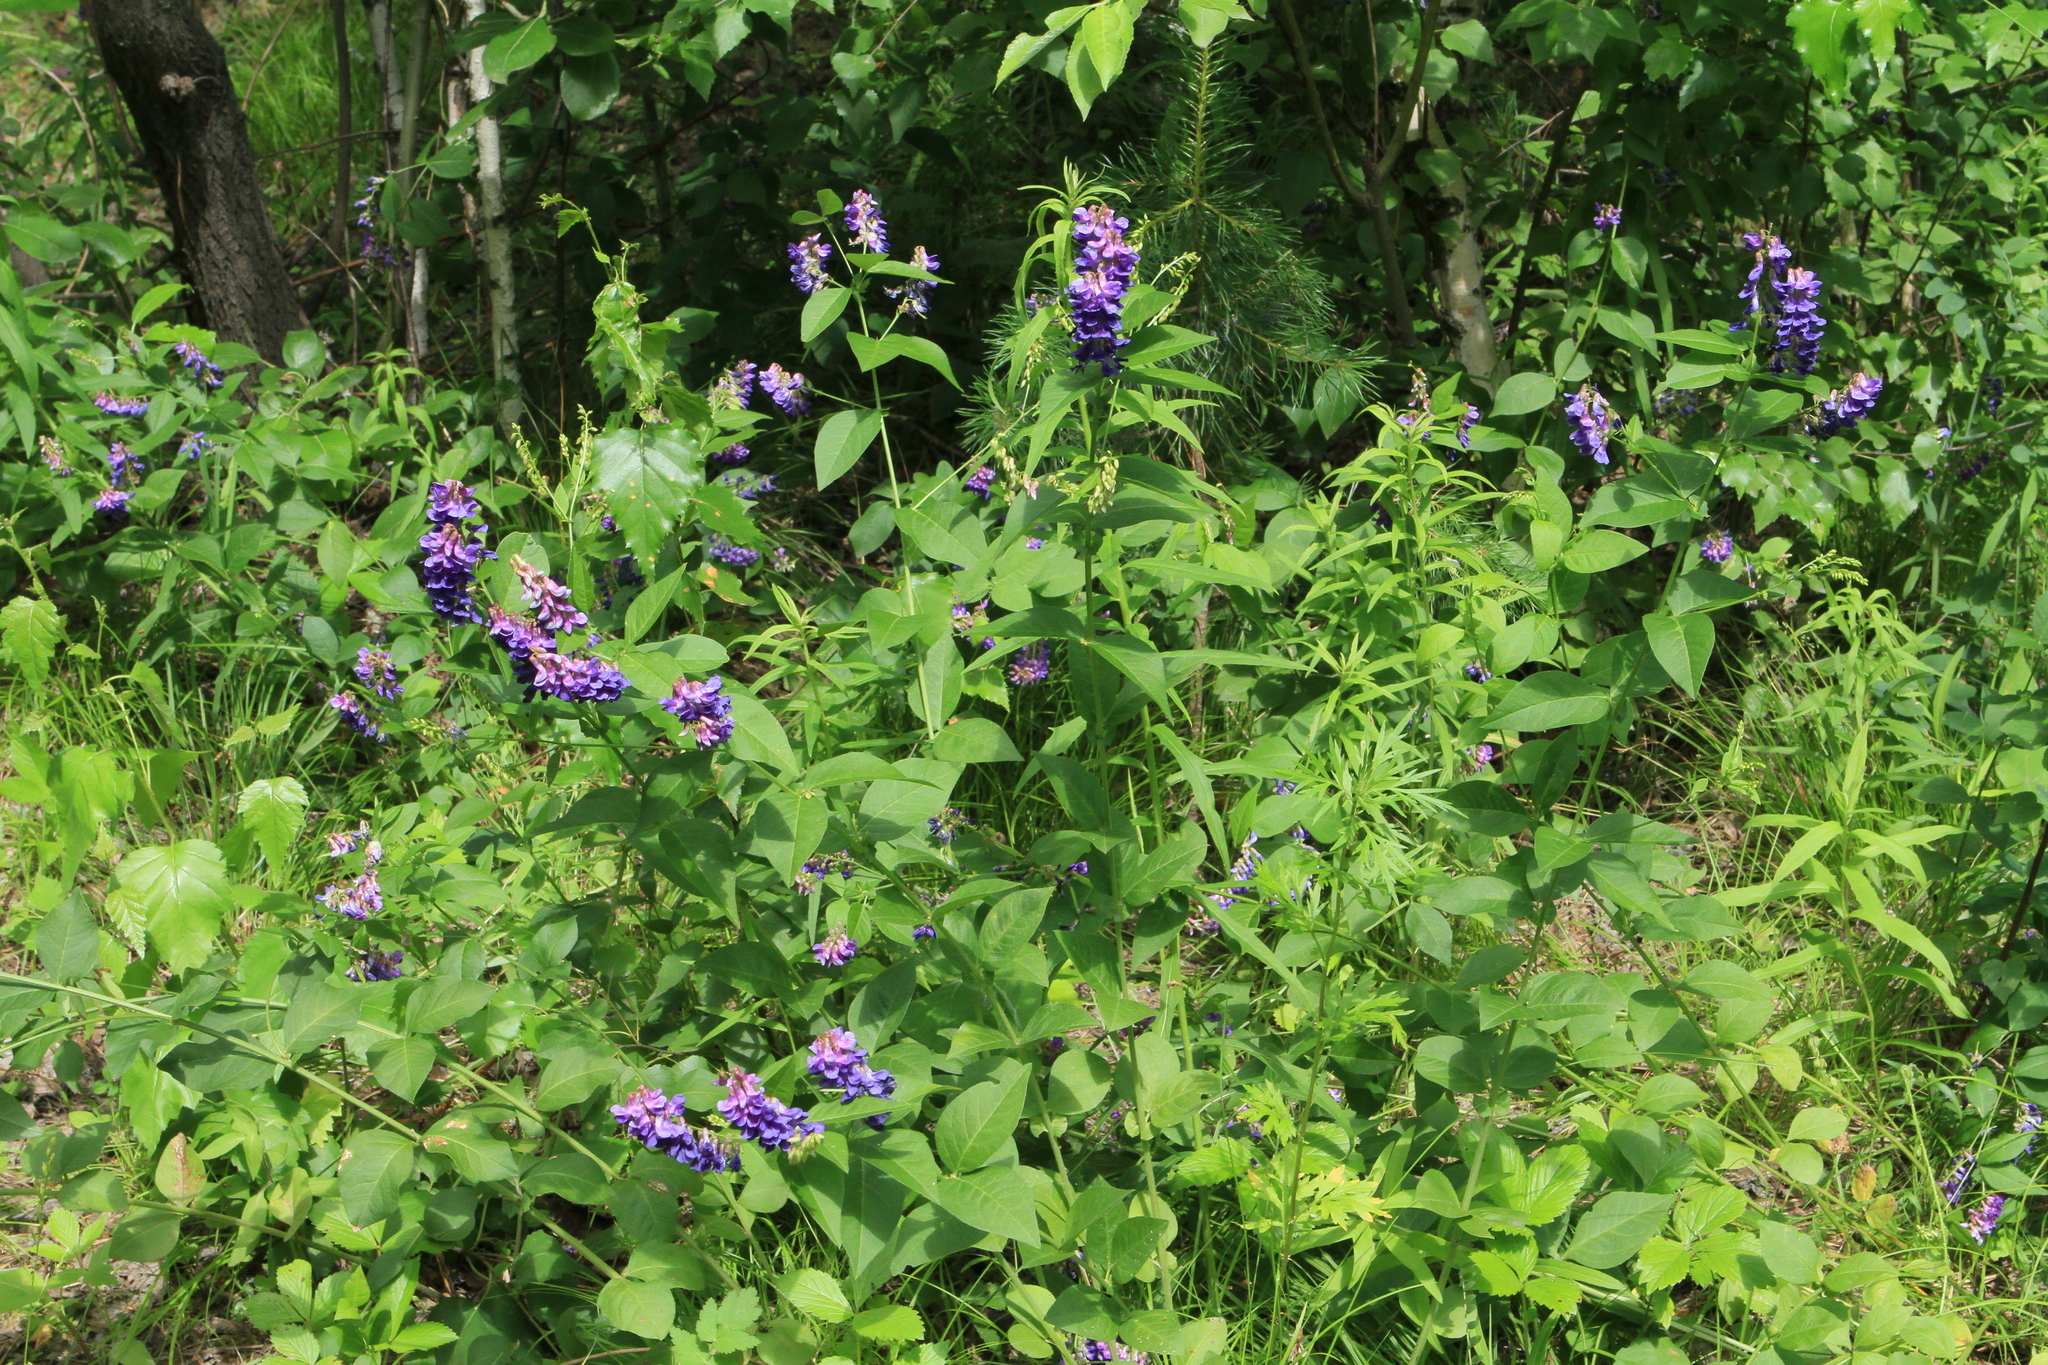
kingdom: Plantae
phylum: Tracheophyta
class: Magnoliopsida
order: Fabales
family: Fabaceae
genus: Vicia
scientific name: Vicia unijuga
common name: Two-leaf vetch
